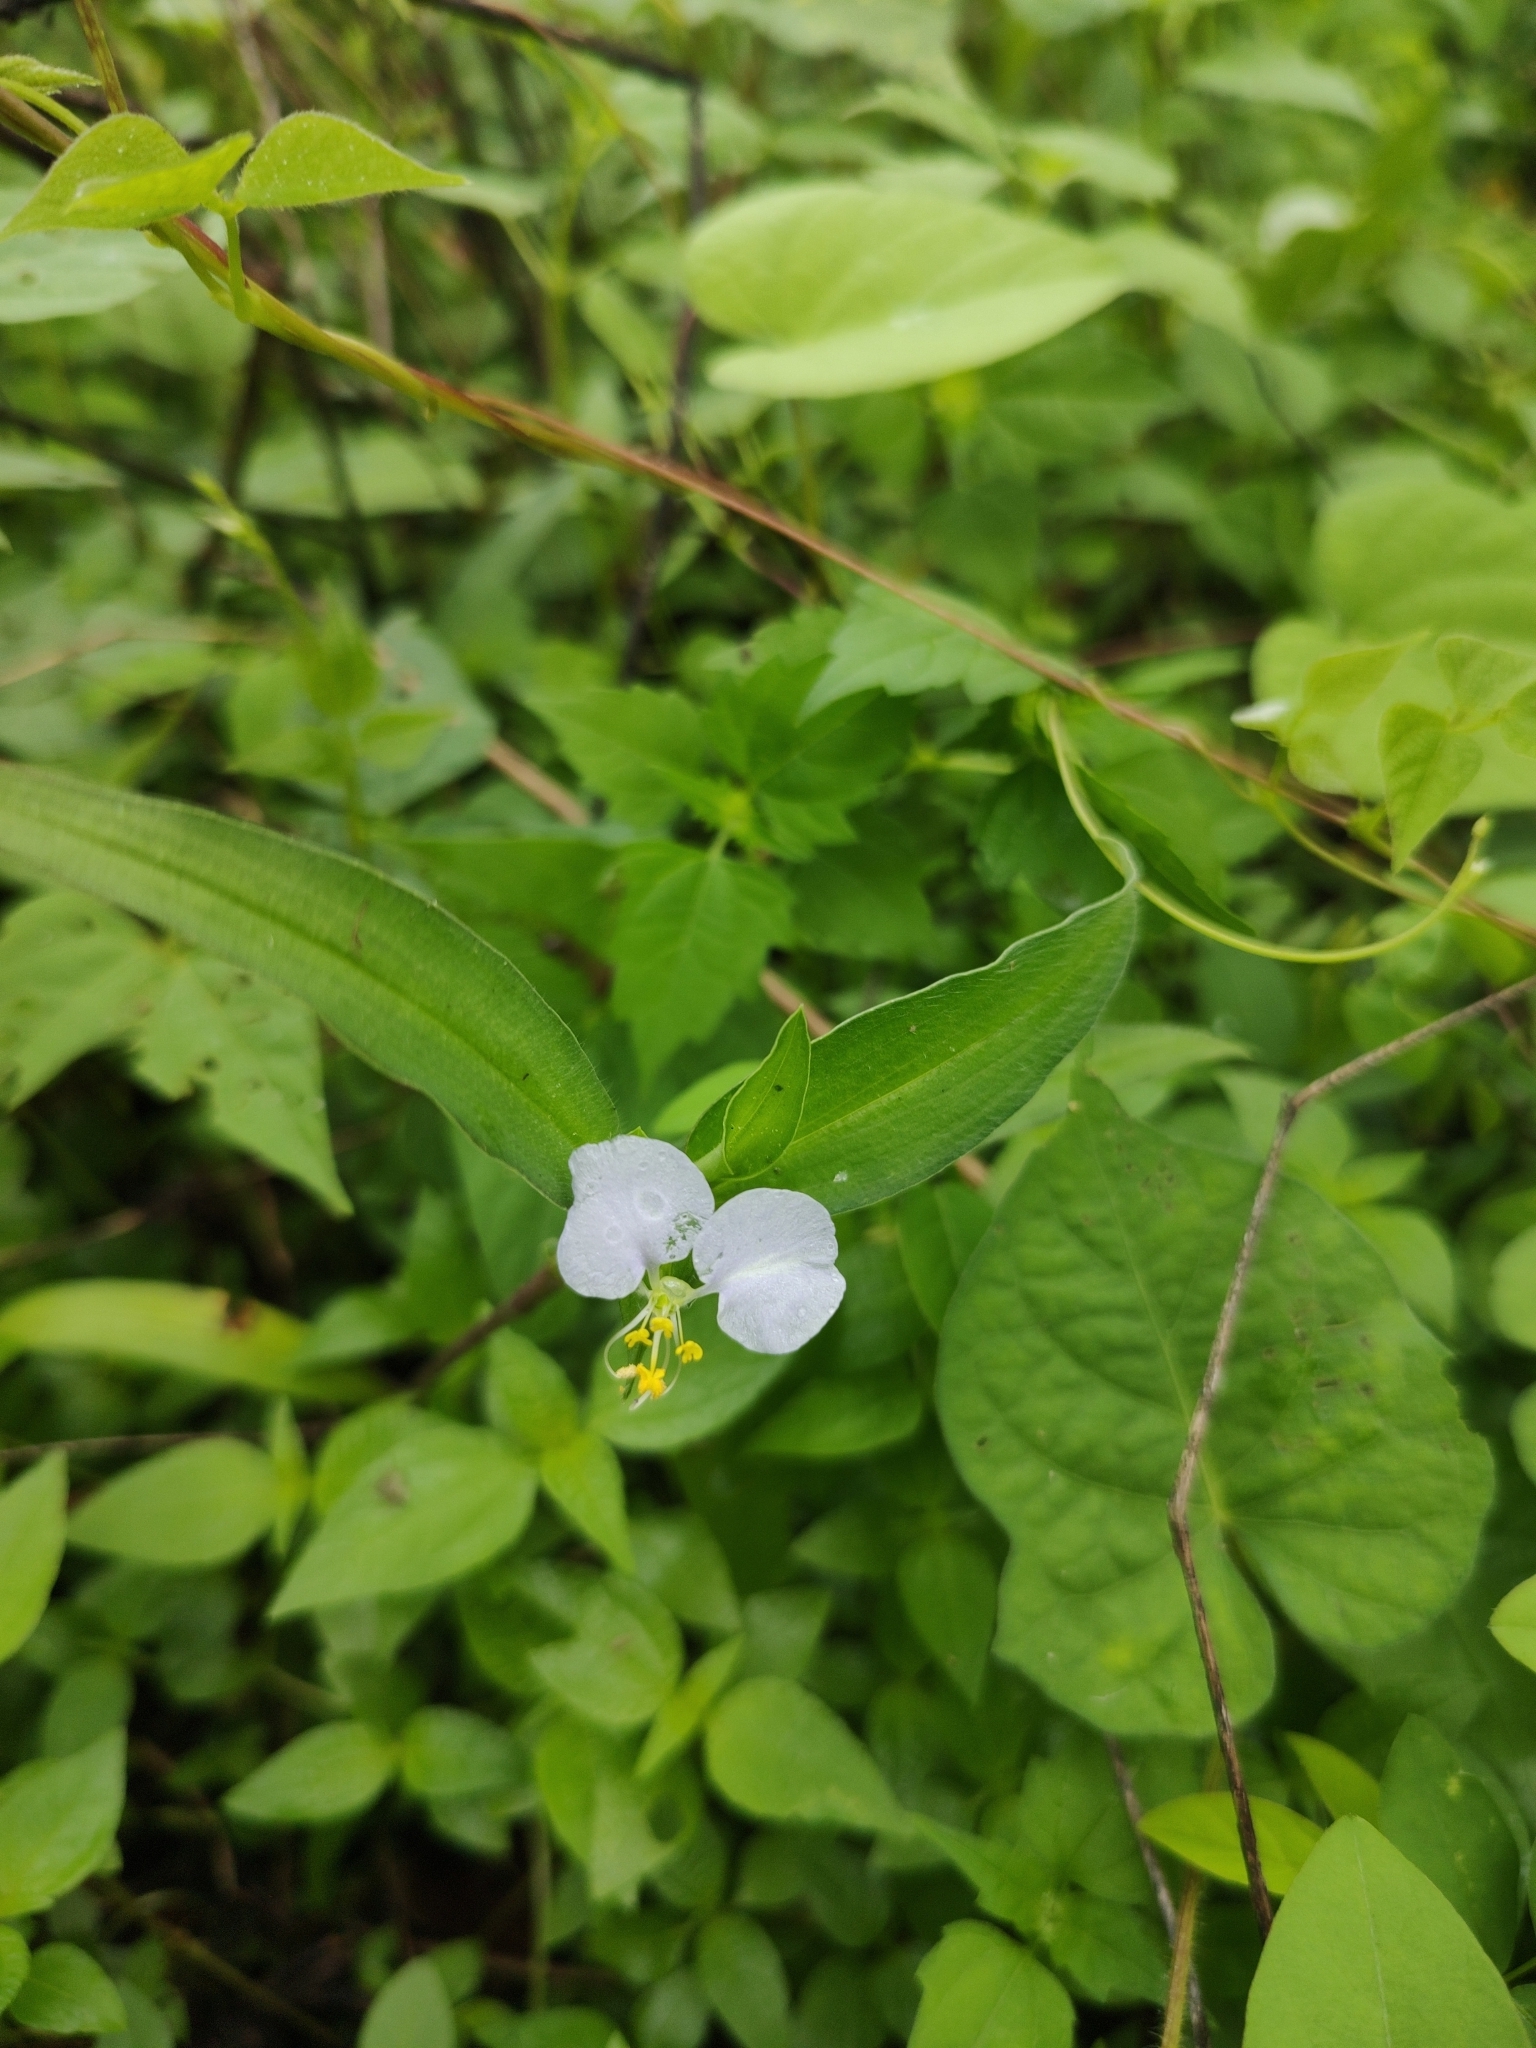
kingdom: Plantae
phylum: Tracheophyta
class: Liliopsida
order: Commelinales
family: Commelinaceae
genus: Commelina
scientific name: Commelina erecta
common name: Blousel blommetjie
